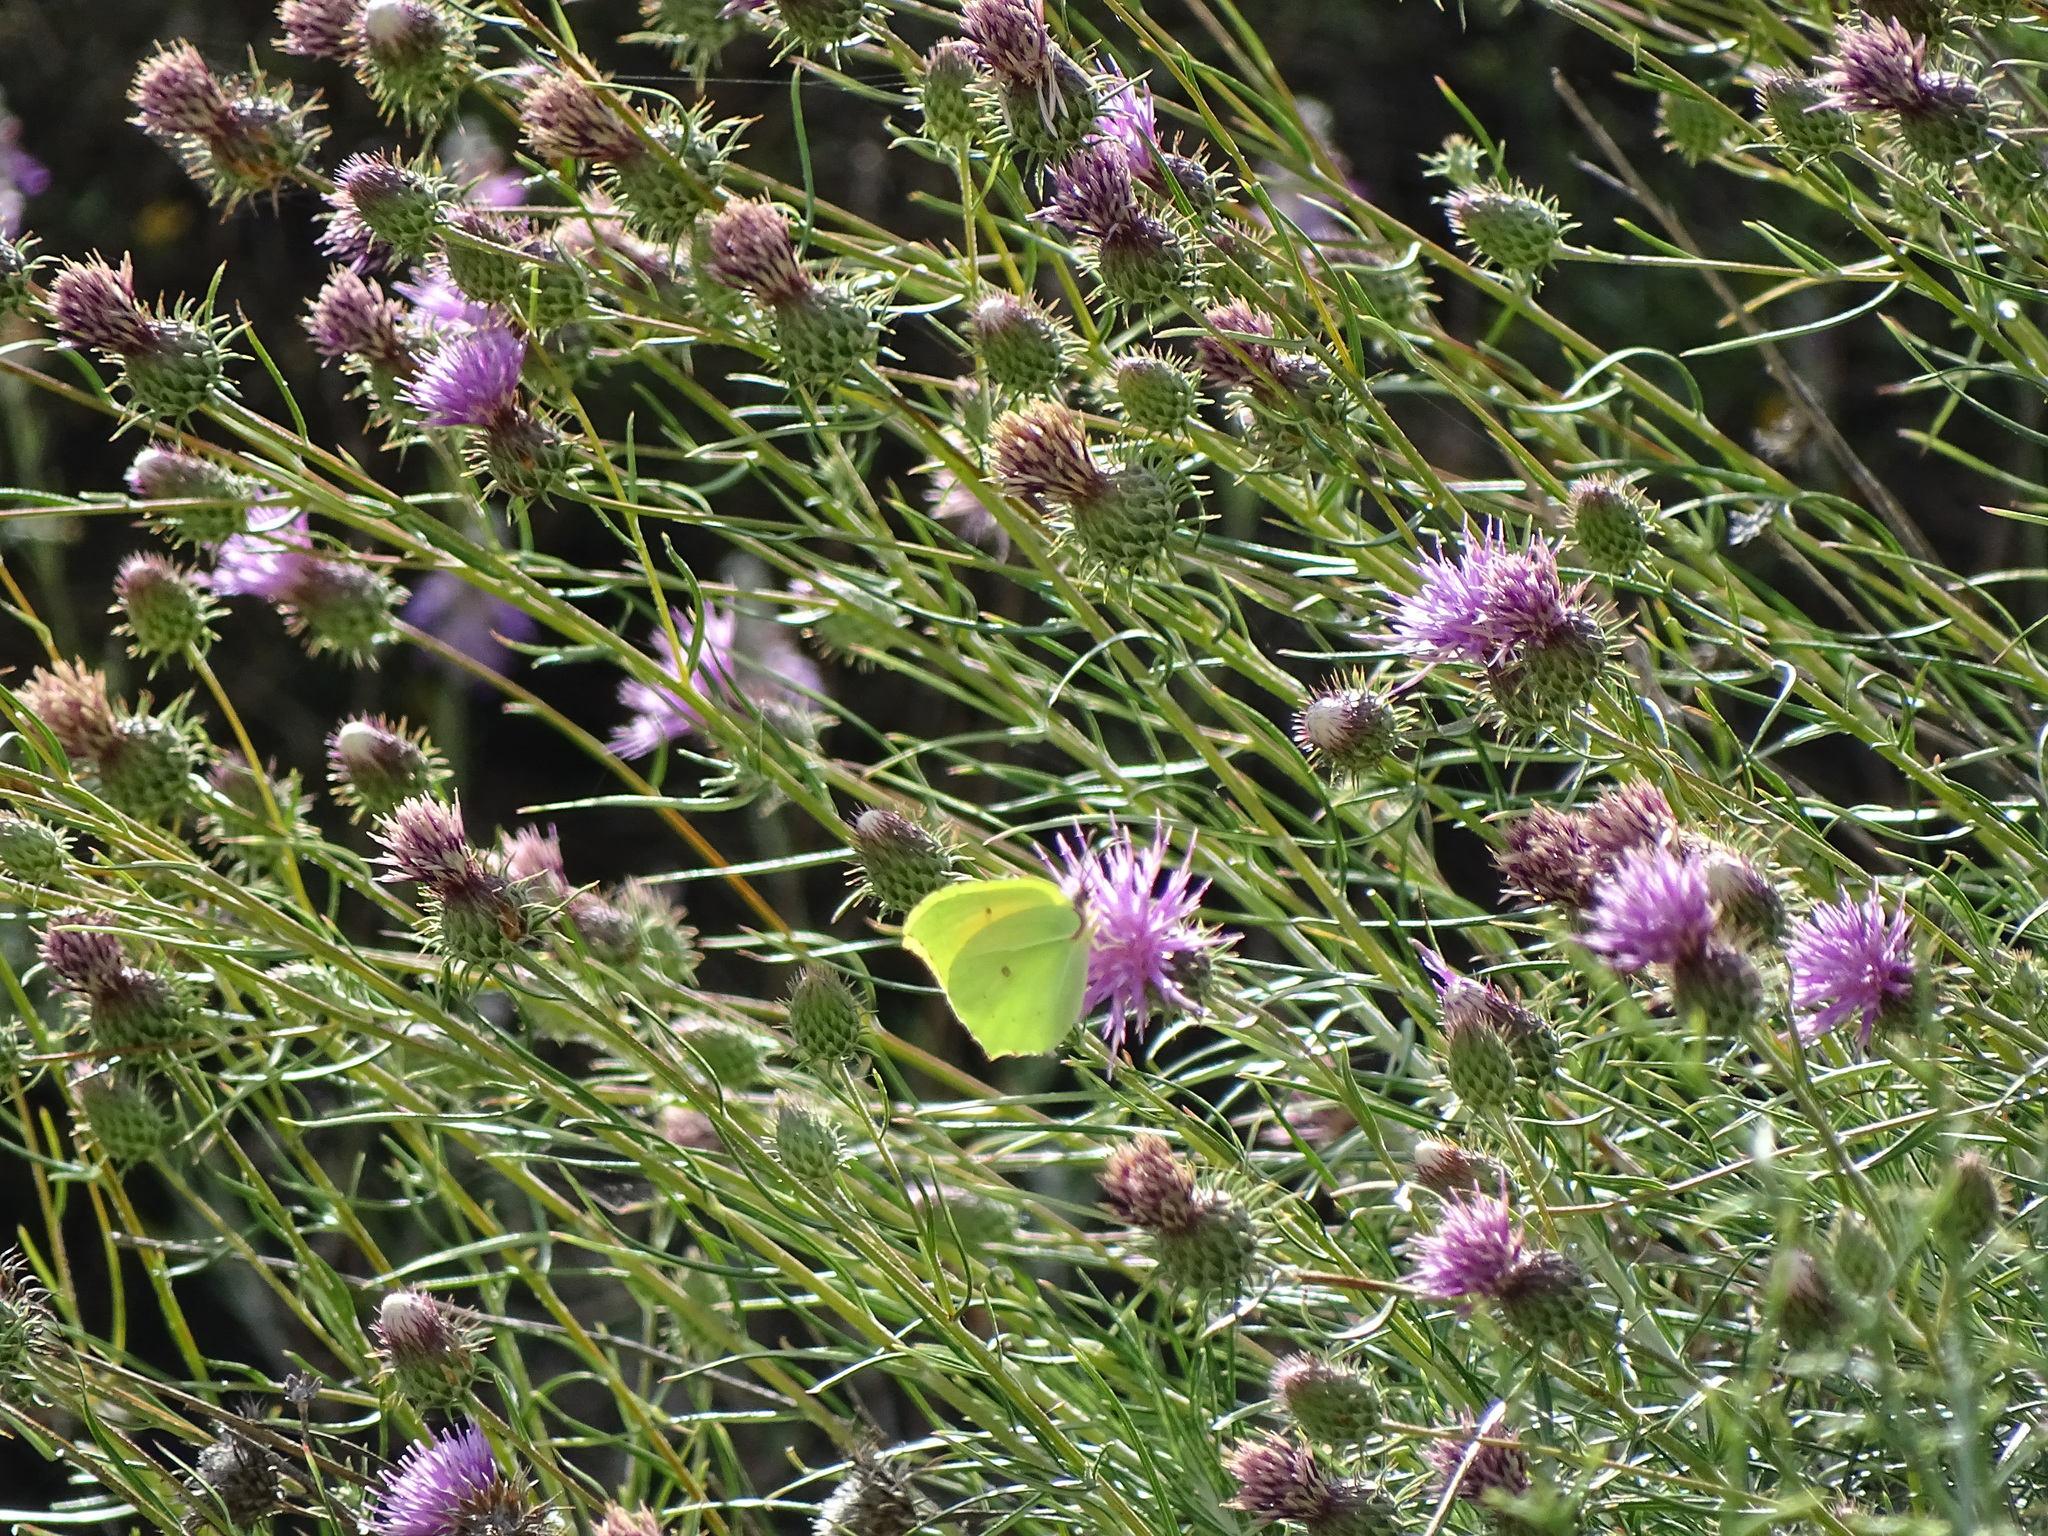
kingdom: Animalia
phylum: Arthropoda
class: Insecta
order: Lepidoptera
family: Pieridae
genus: Gonepteryx
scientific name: Gonepteryx cleopatra
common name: Cleopatra
